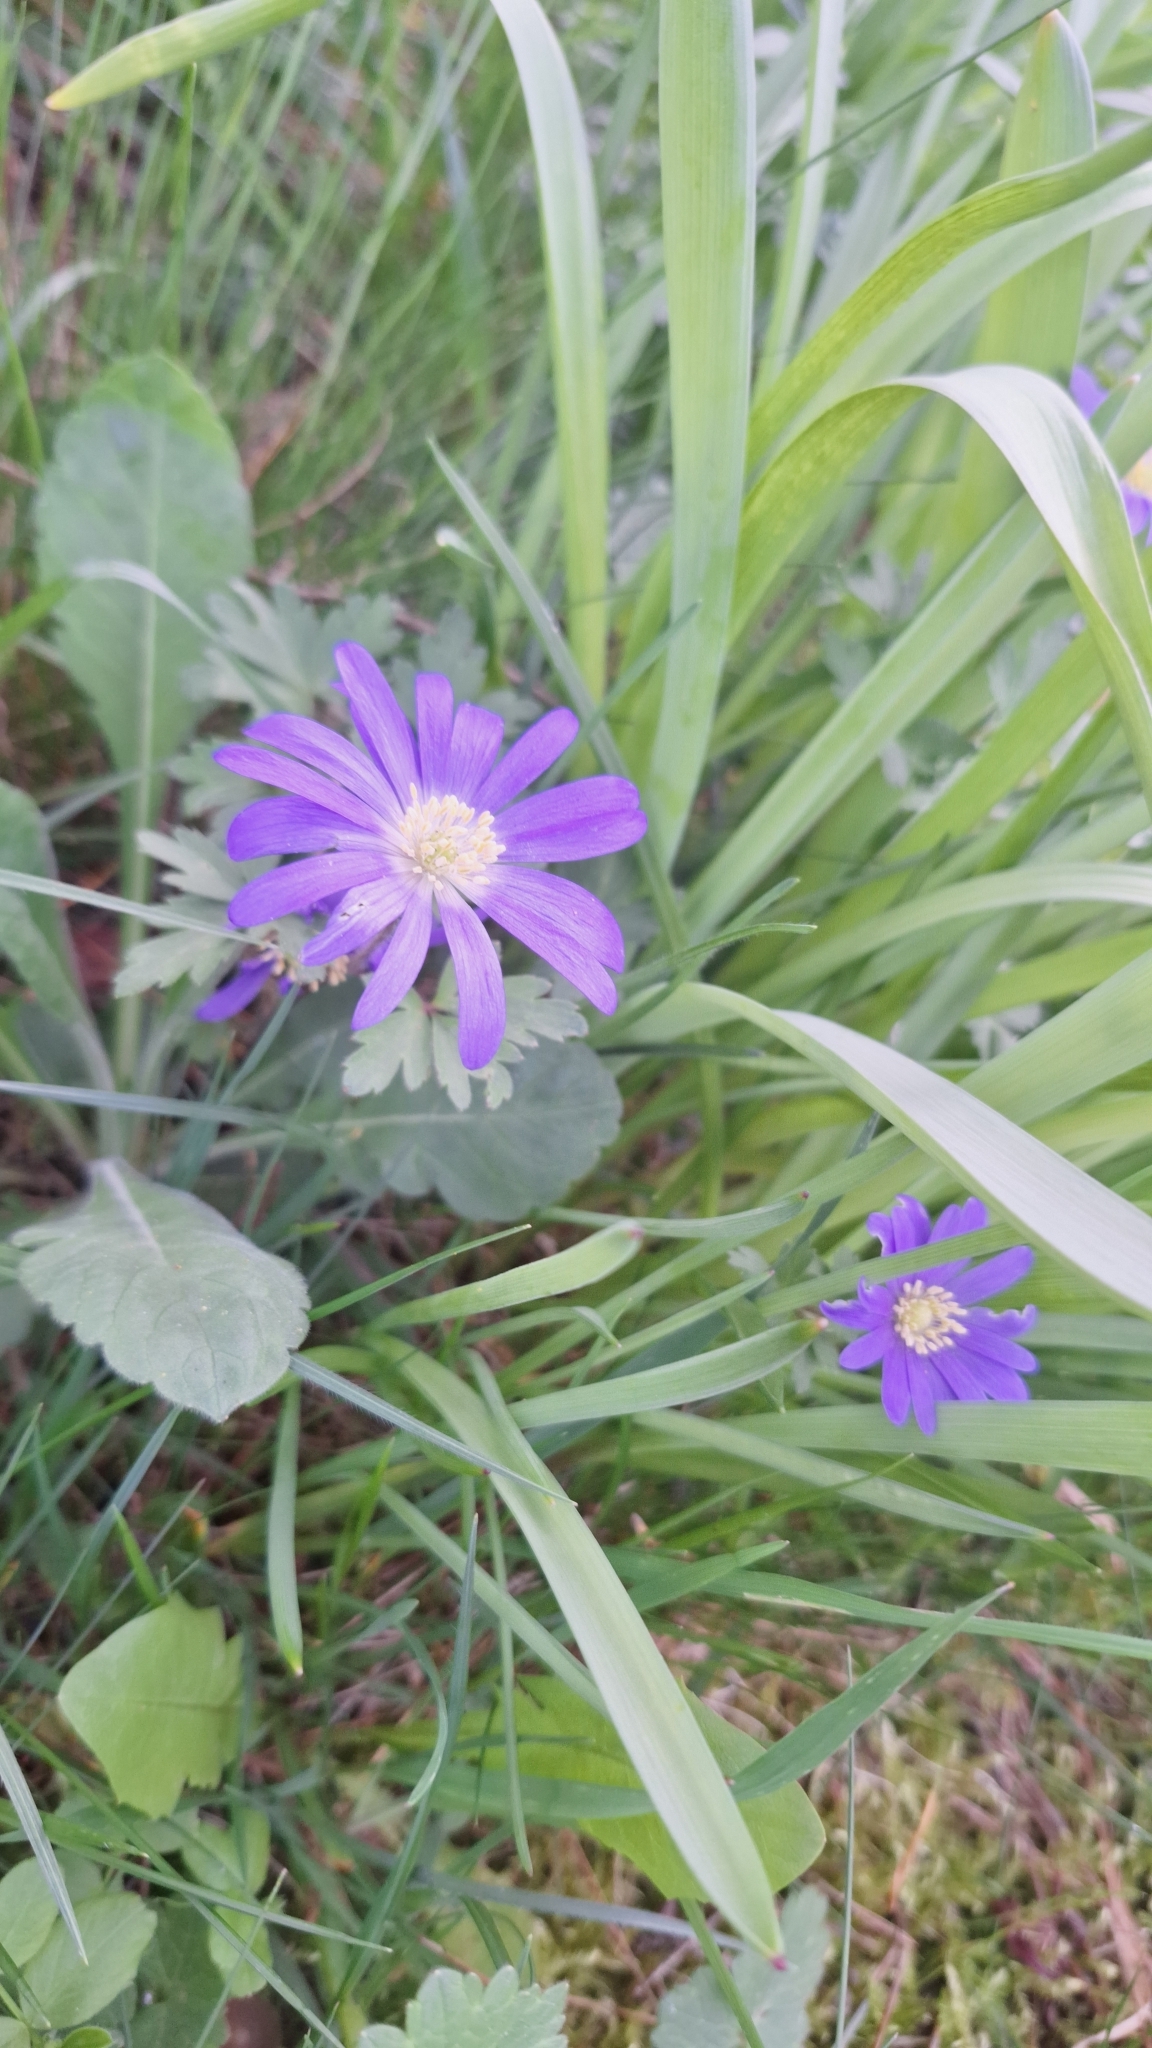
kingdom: Plantae
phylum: Tracheophyta
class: Magnoliopsida
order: Ranunculales
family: Ranunculaceae
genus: Anemone
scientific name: Anemone blanda
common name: Balkan anemone
